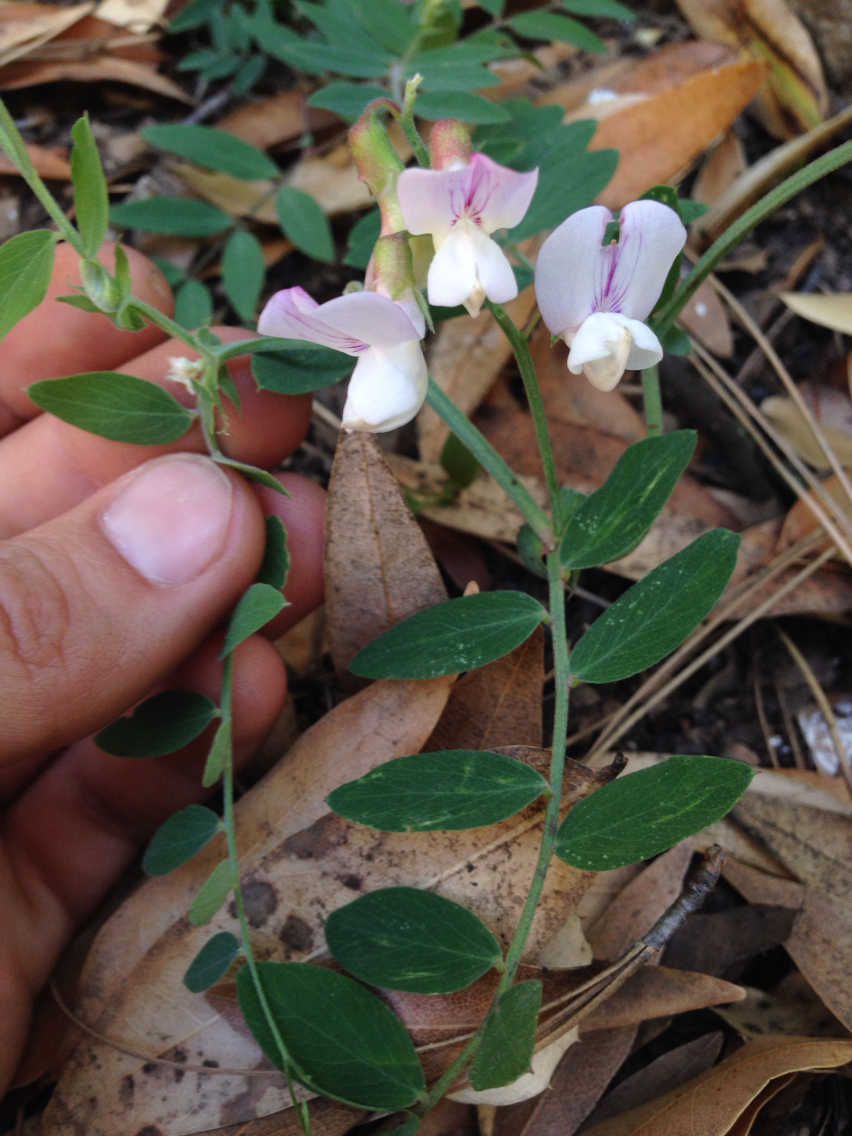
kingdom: Plantae
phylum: Tracheophyta
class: Magnoliopsida
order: Fabales
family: Fabaceae
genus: Lathyrus
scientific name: Lathyrus vestitus
